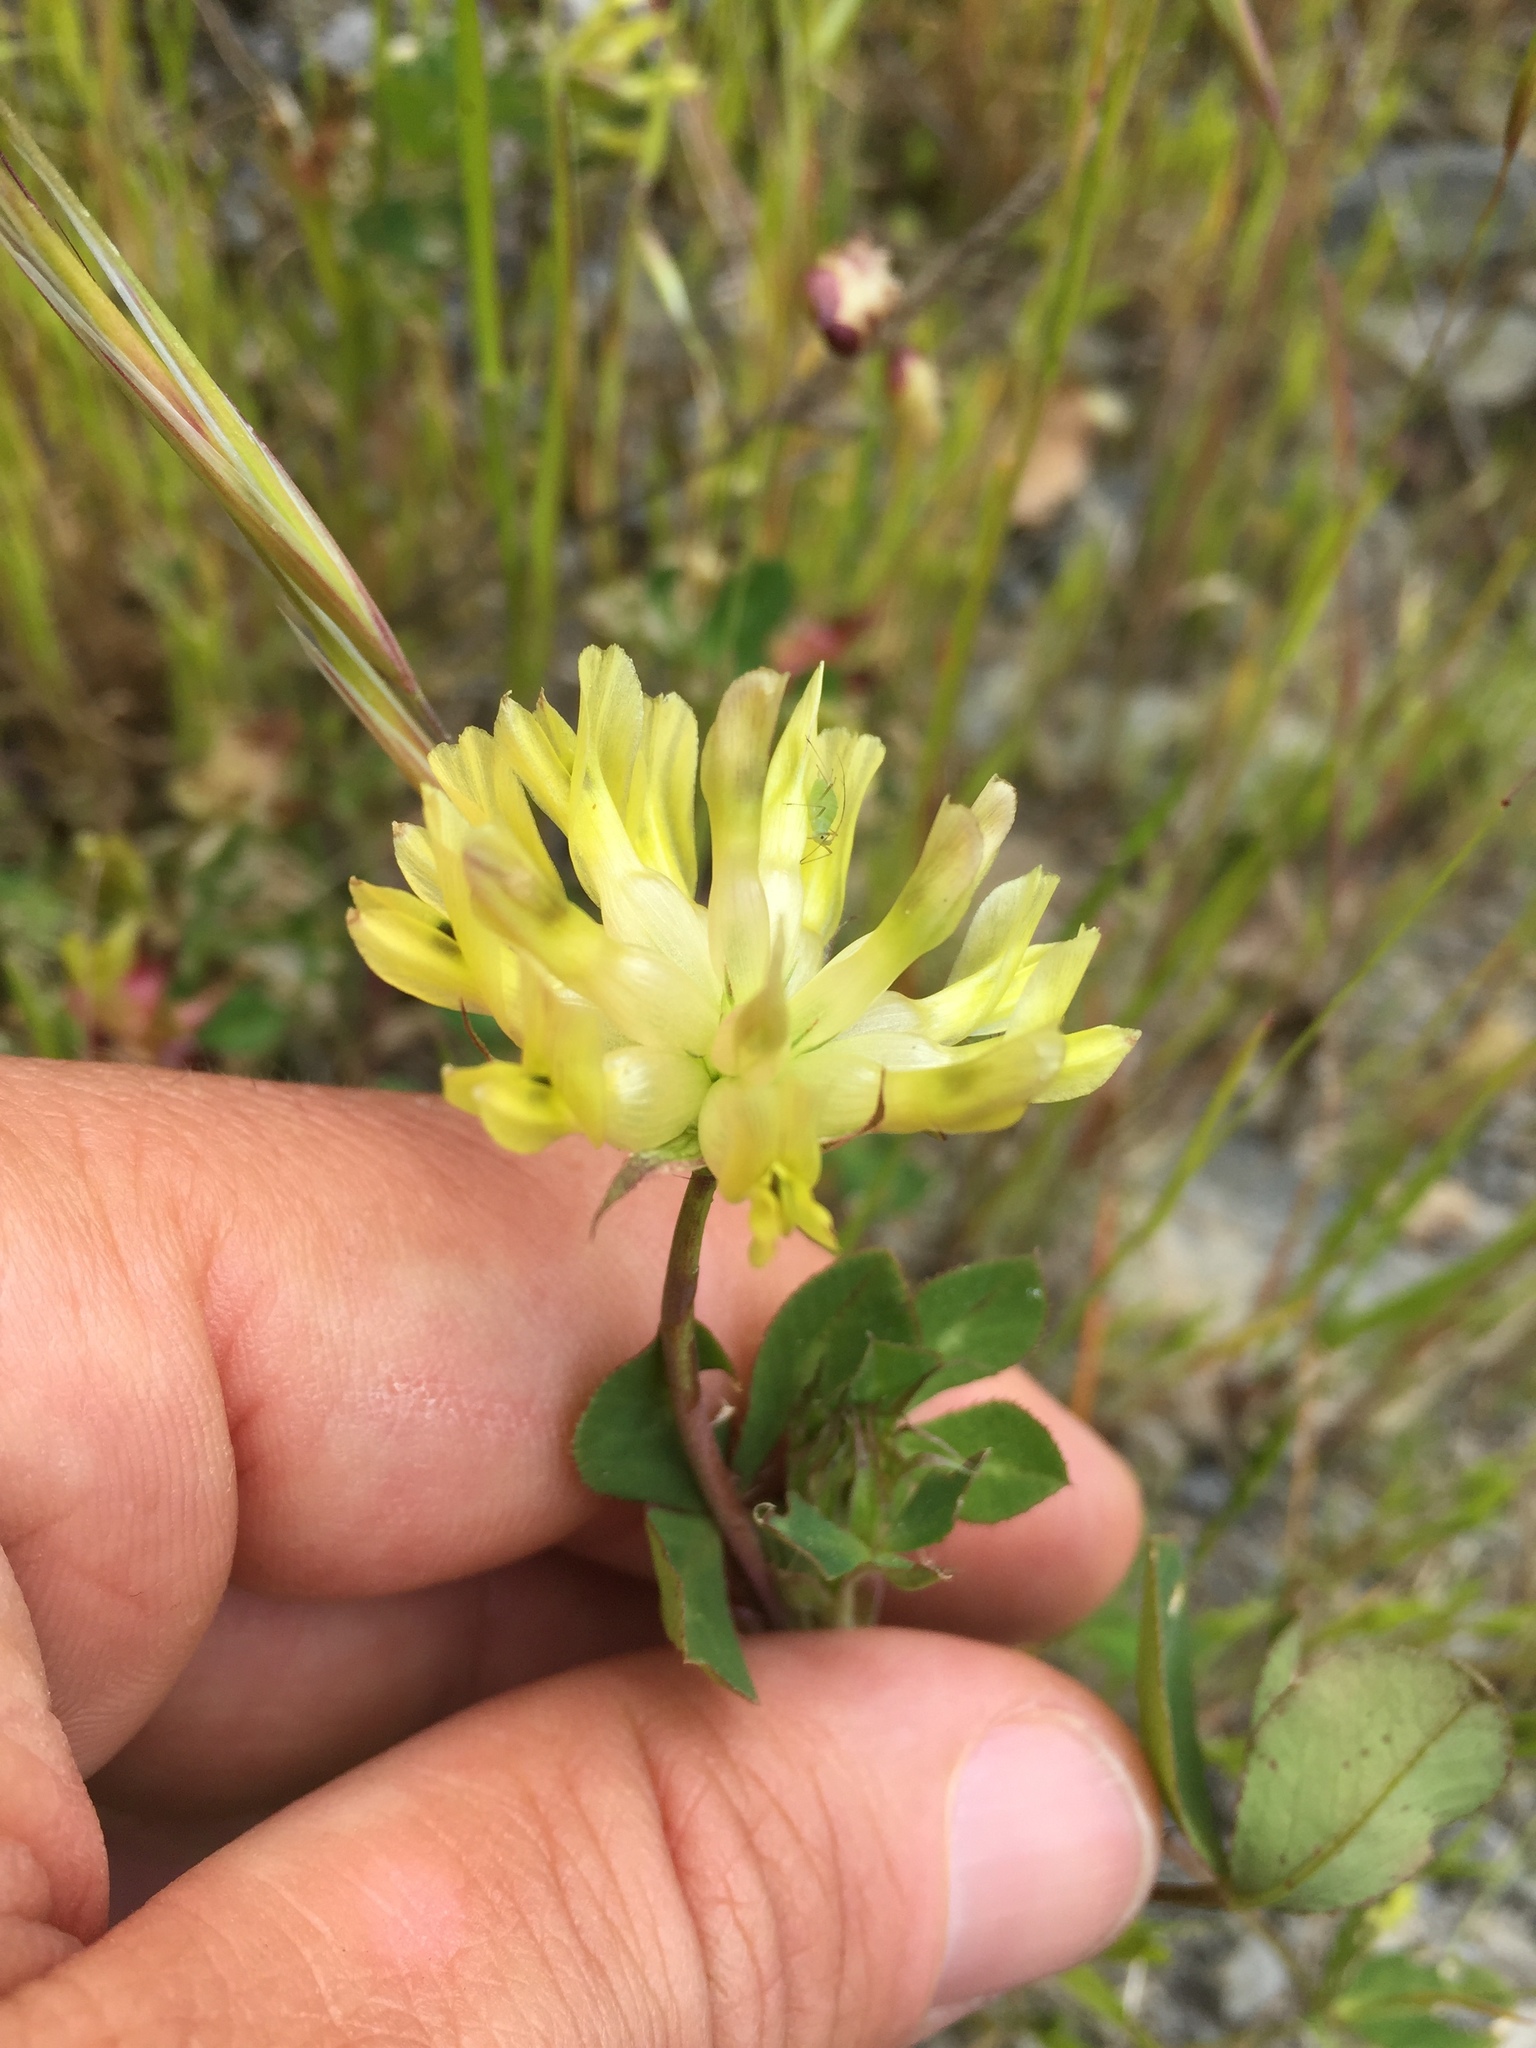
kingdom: Plantae
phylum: Tracheophyta
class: Magnoliopsida
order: Fabales
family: Fabaceae
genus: Trifolium
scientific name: Trifolium fucatum
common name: Puff clover
